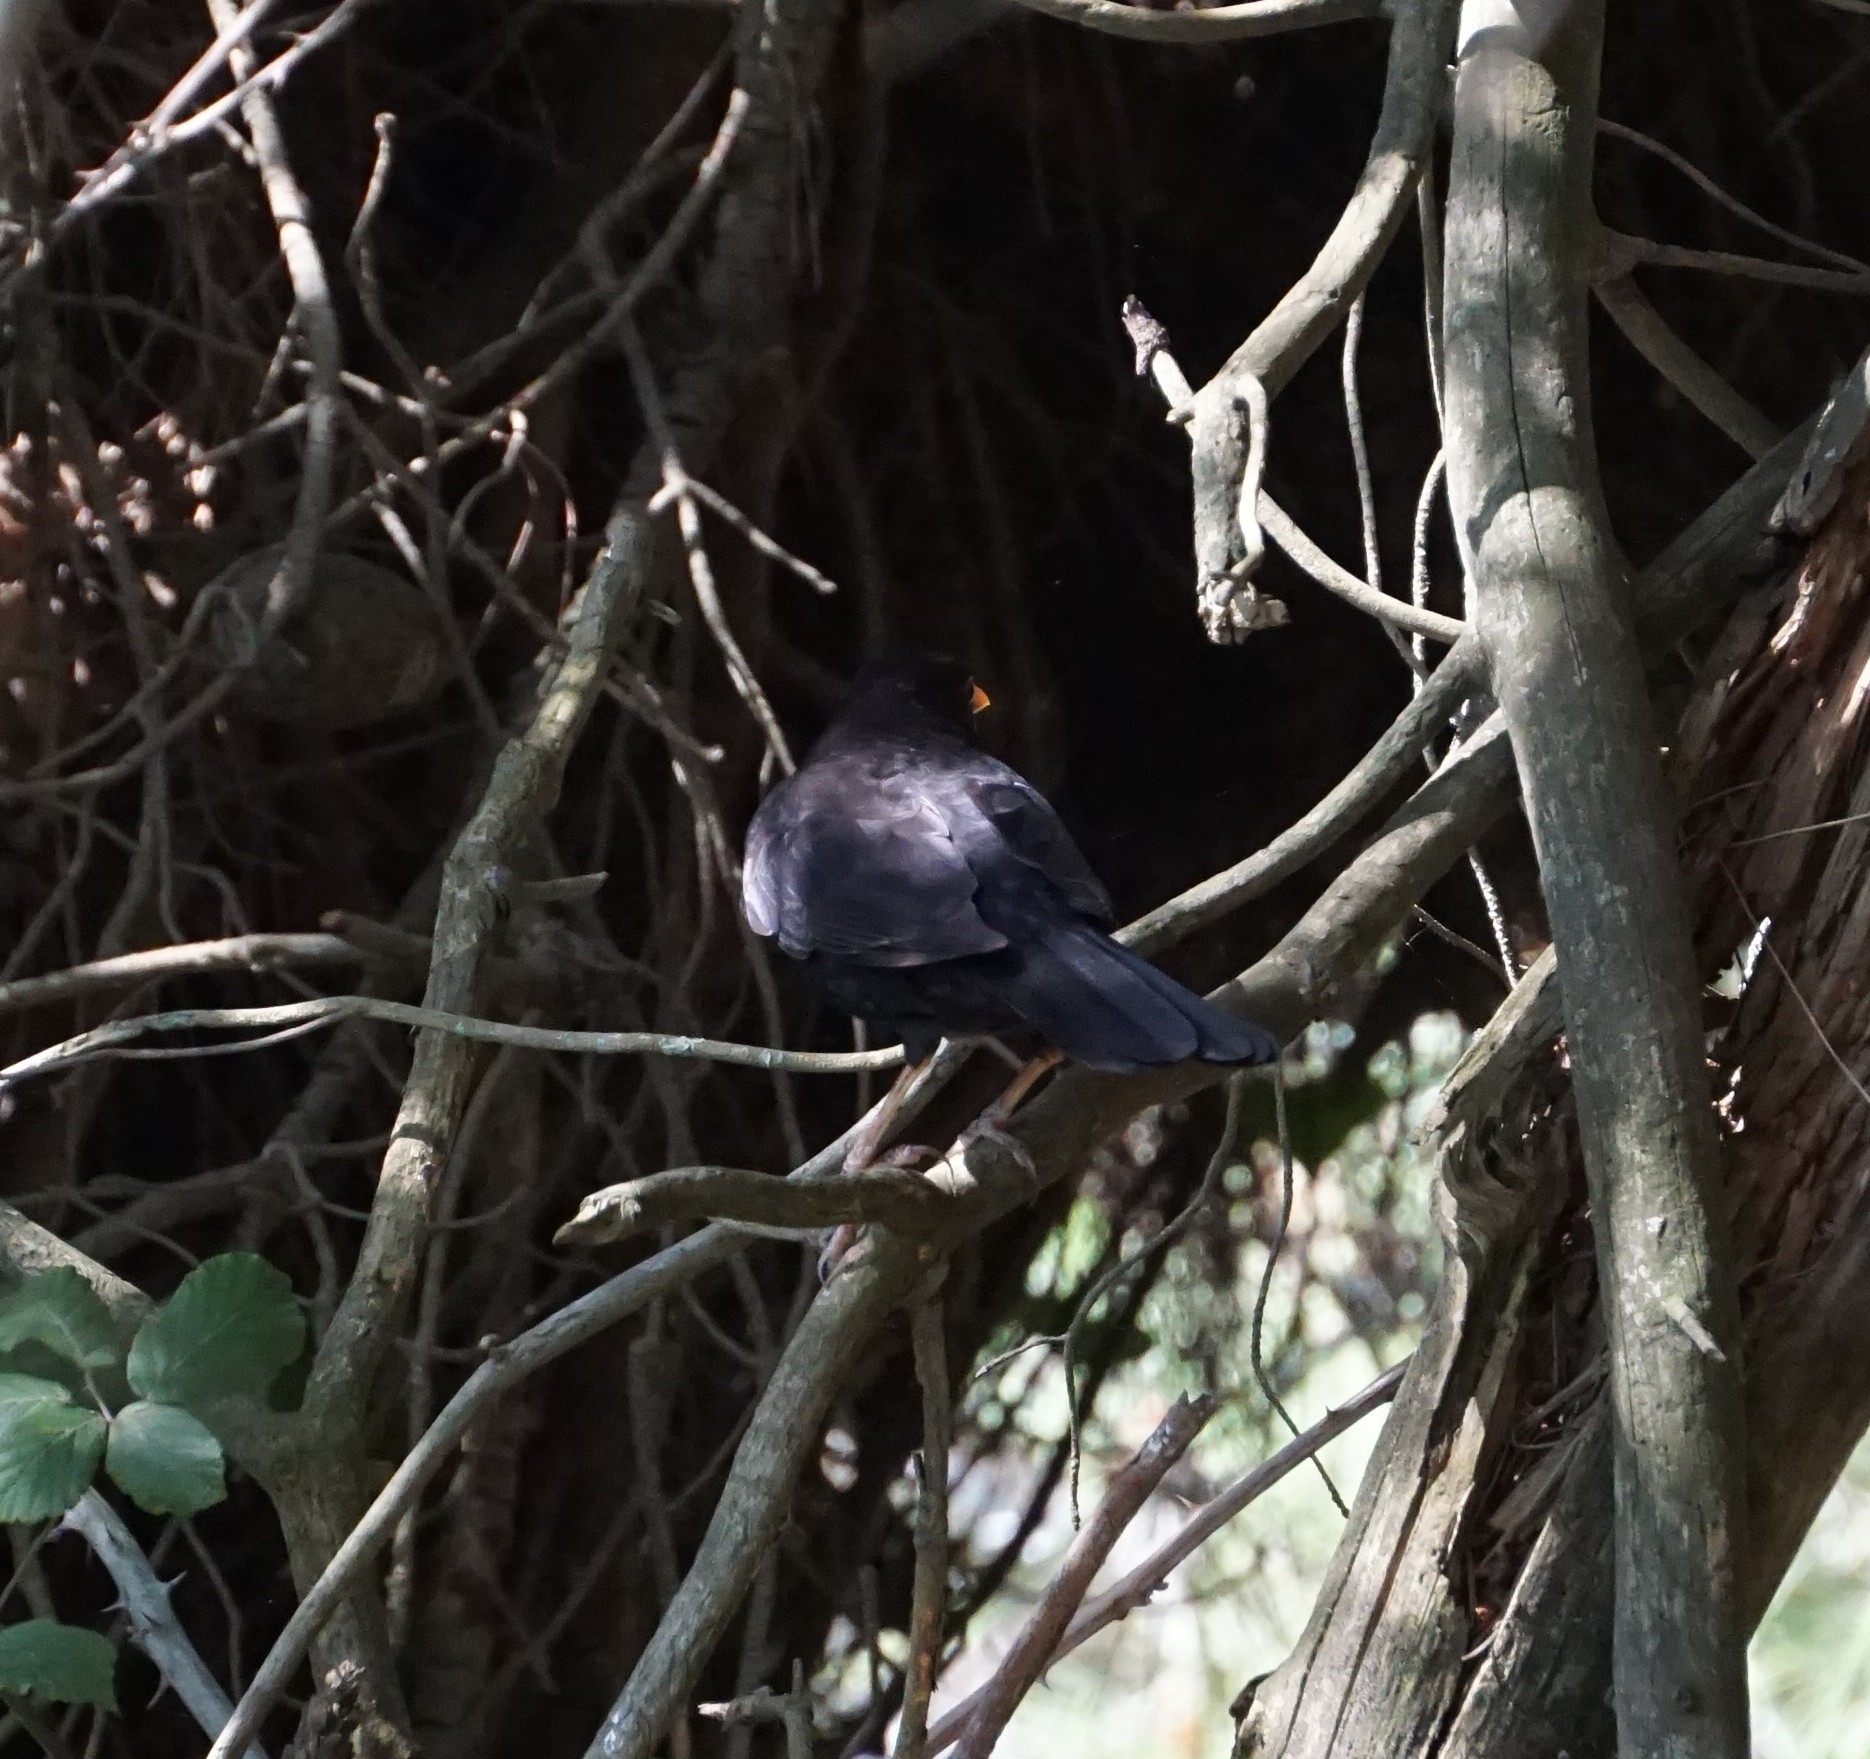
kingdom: Animalia
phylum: Chordata
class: Aves
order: Passeriformes
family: Turdidae
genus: Turdus
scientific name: Turdus merula
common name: Common blackbird
